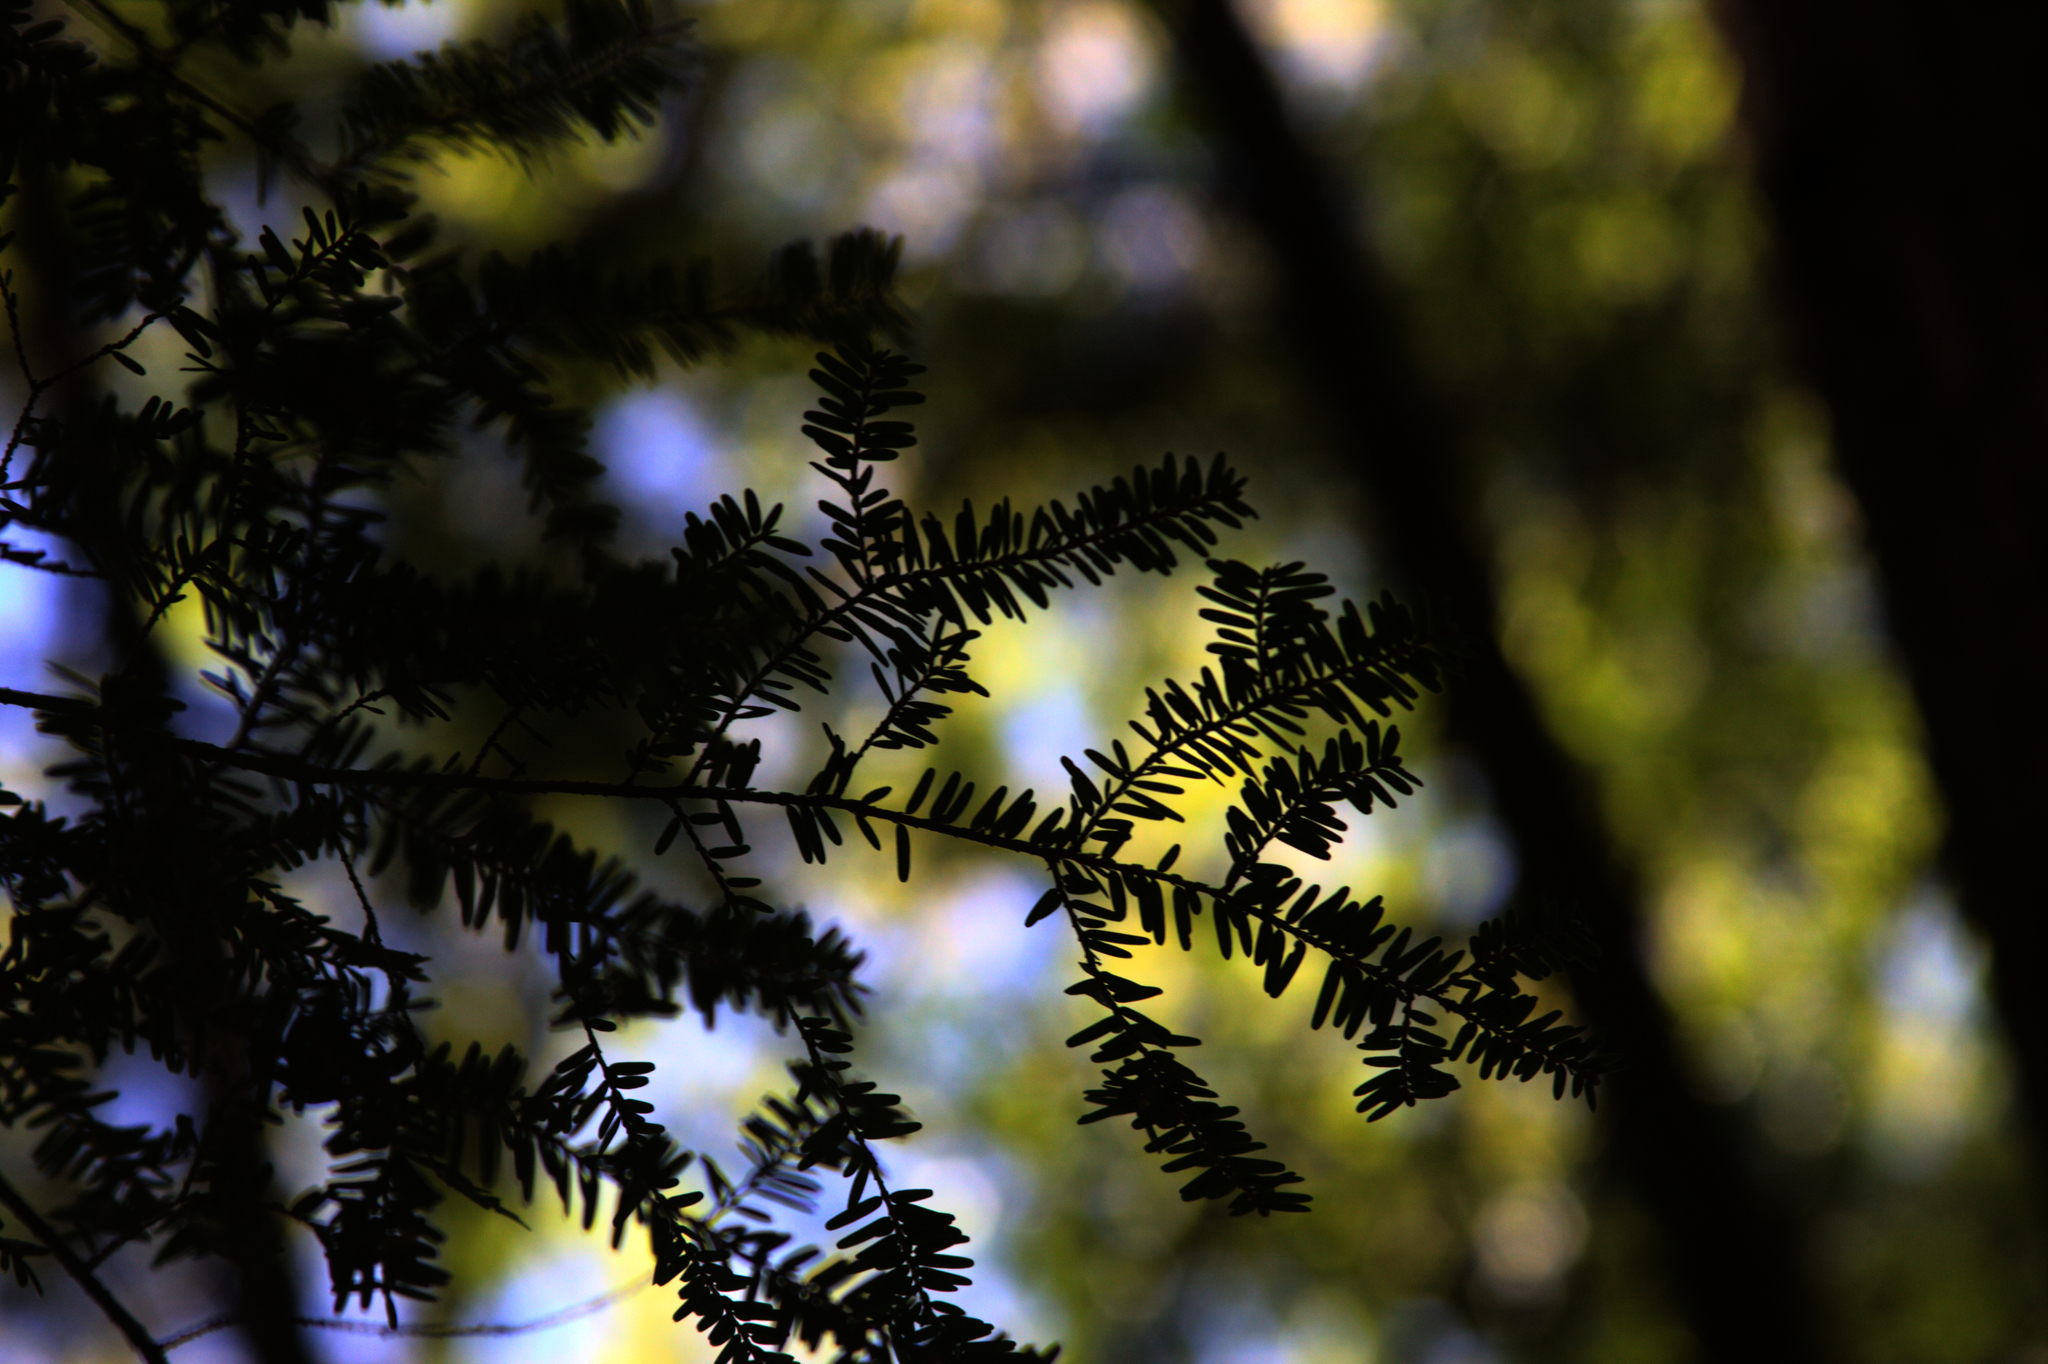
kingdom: Plantae
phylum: Tracheophyta
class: Pinopsida
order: Pinales
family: Pinaceae
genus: Tsuga
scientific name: Tsuga canadensis
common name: Eastern hemlock
